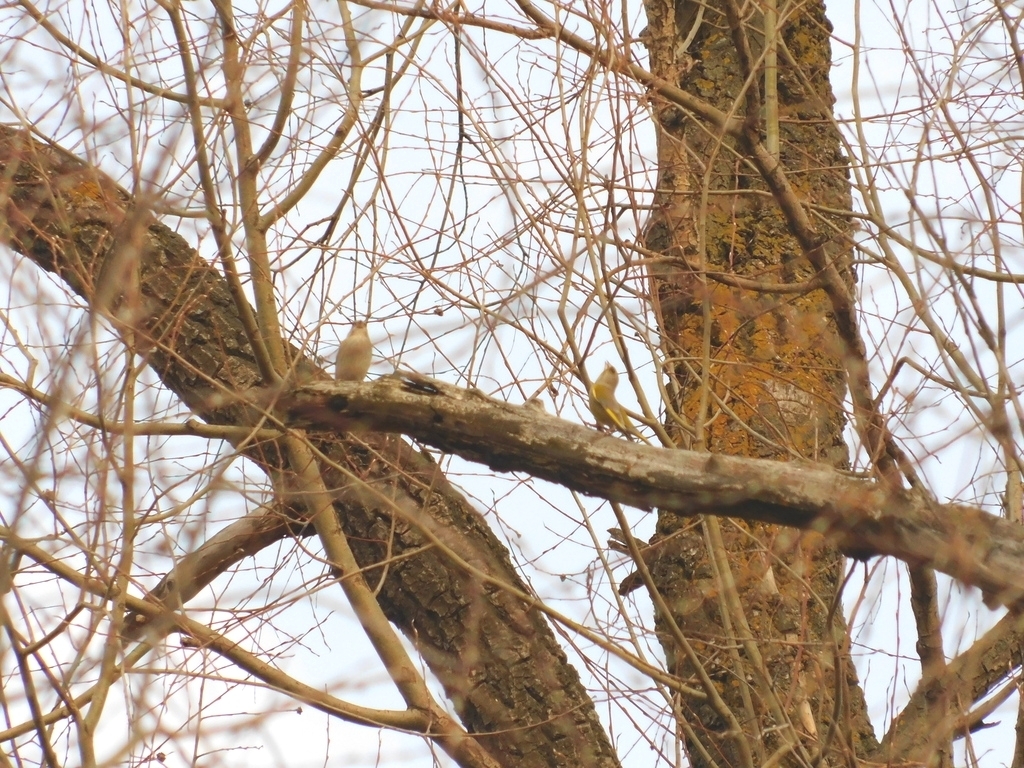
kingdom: Plantae
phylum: Tracheophyta
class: Liliopsida
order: Poales
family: Poaceae
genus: Chloris
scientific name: Chloris chloris
